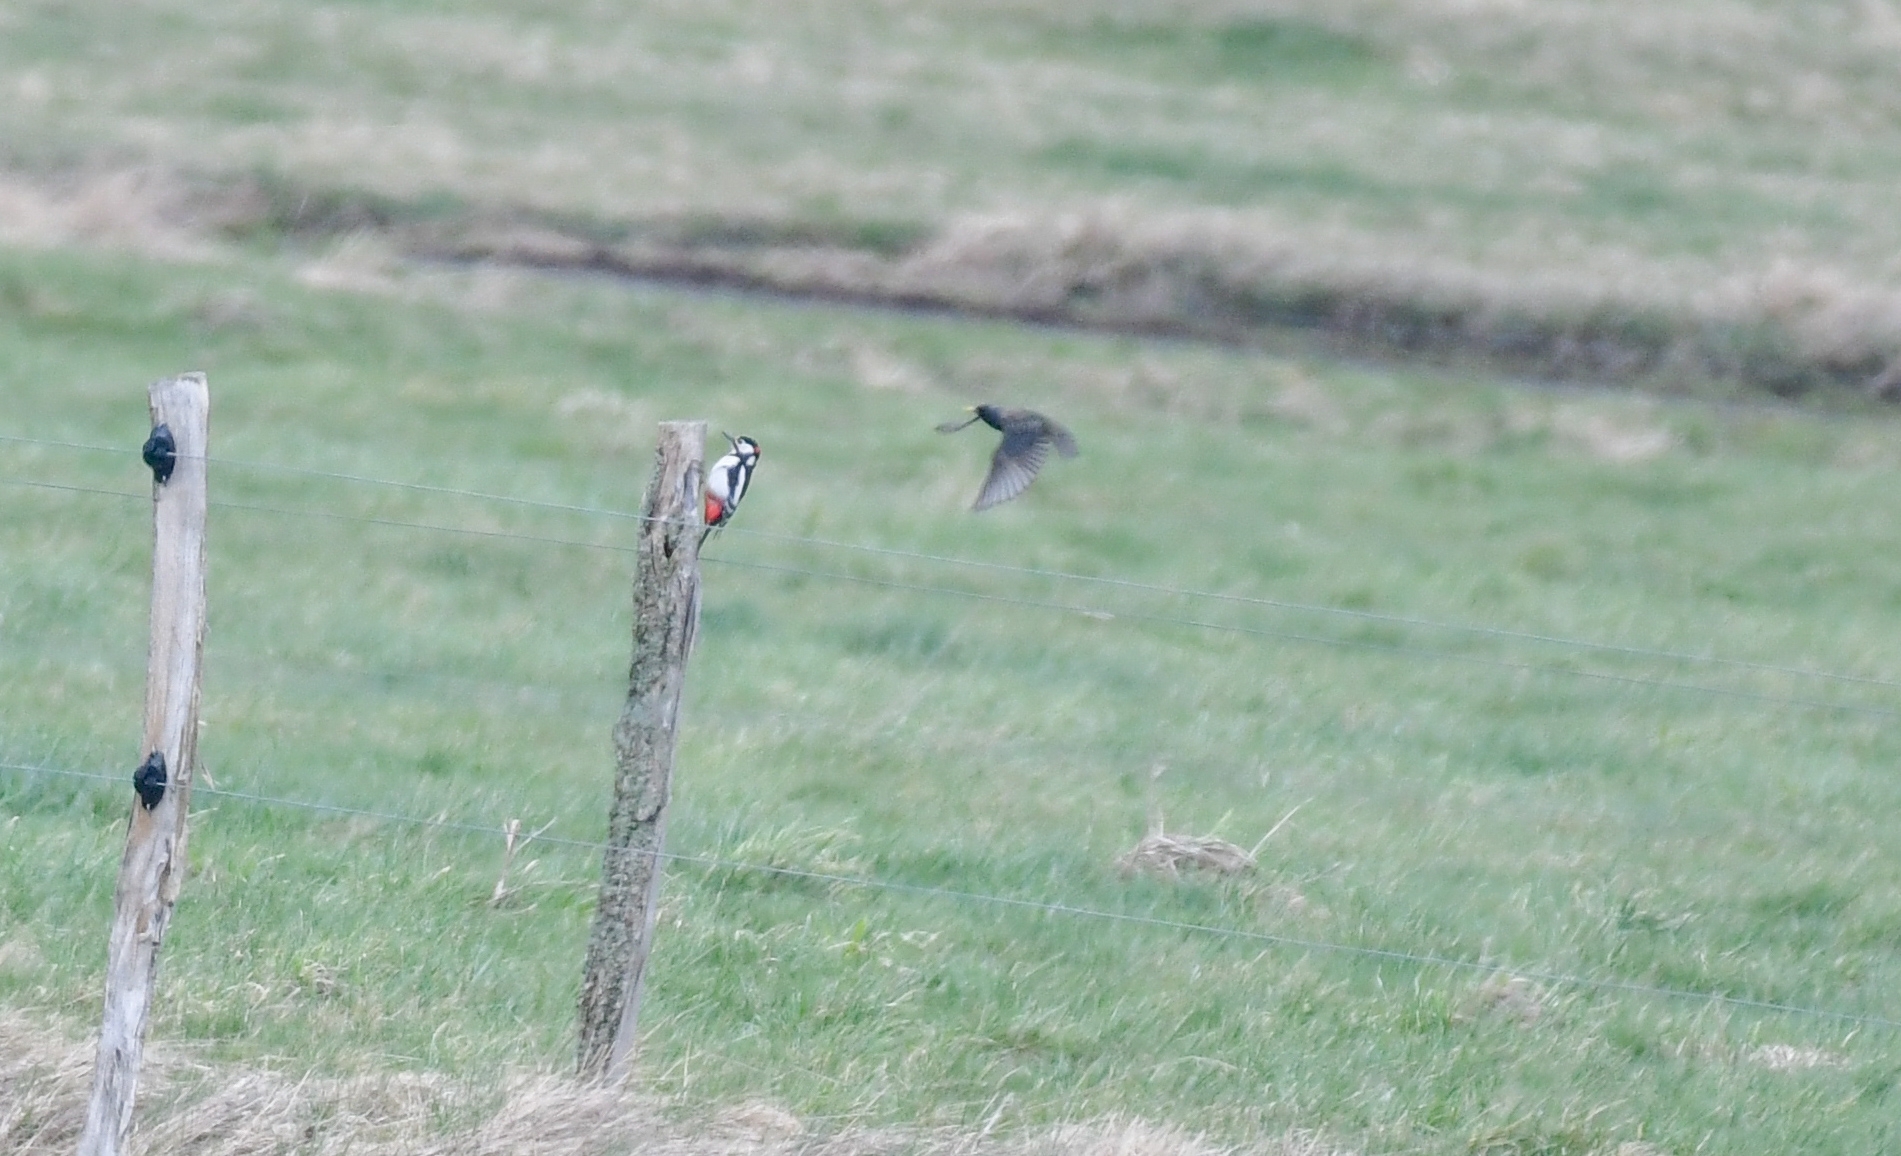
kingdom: Animalia
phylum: Chordata
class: Aves
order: Piciformes
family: Picidae
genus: Dendrocopos
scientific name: Dendrocopos major
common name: Great spotted woodpecker
